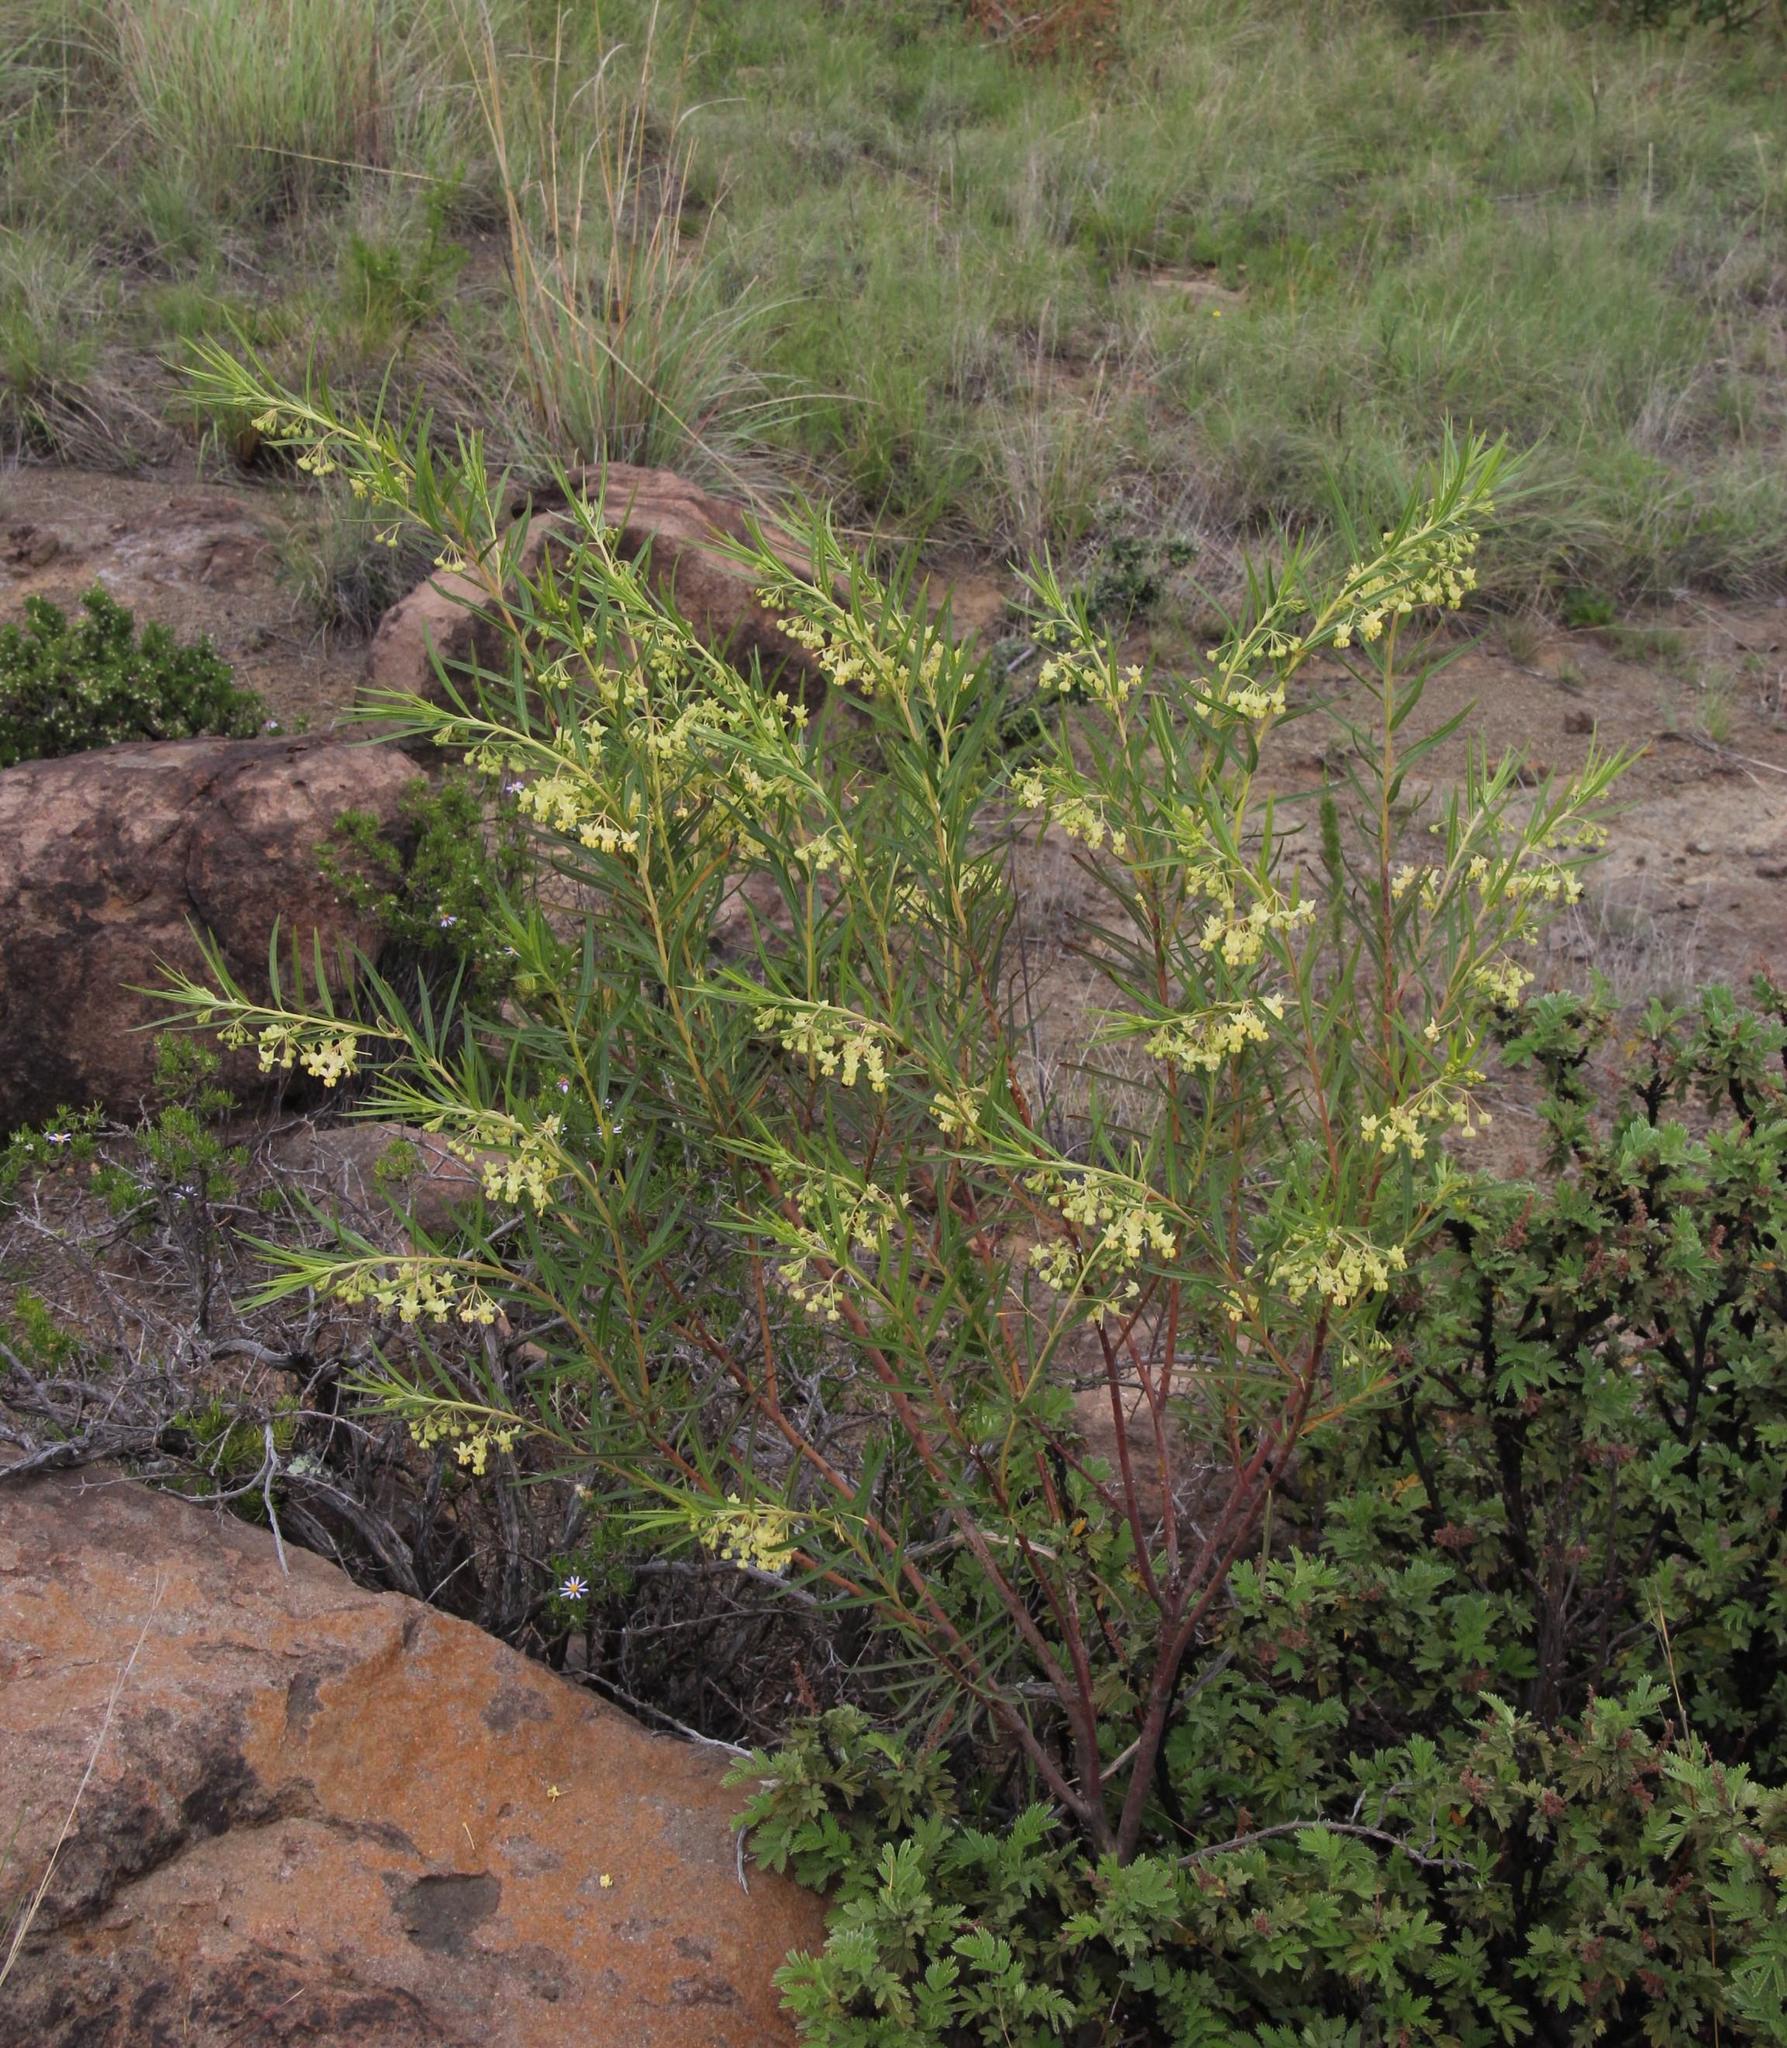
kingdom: Plantae
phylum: Tracheophyta
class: Magnoliopsida
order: Gentianales
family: Apocynaceae
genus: Gomphocarpus
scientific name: Gomphocarpus fruticosus
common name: Milkweed
